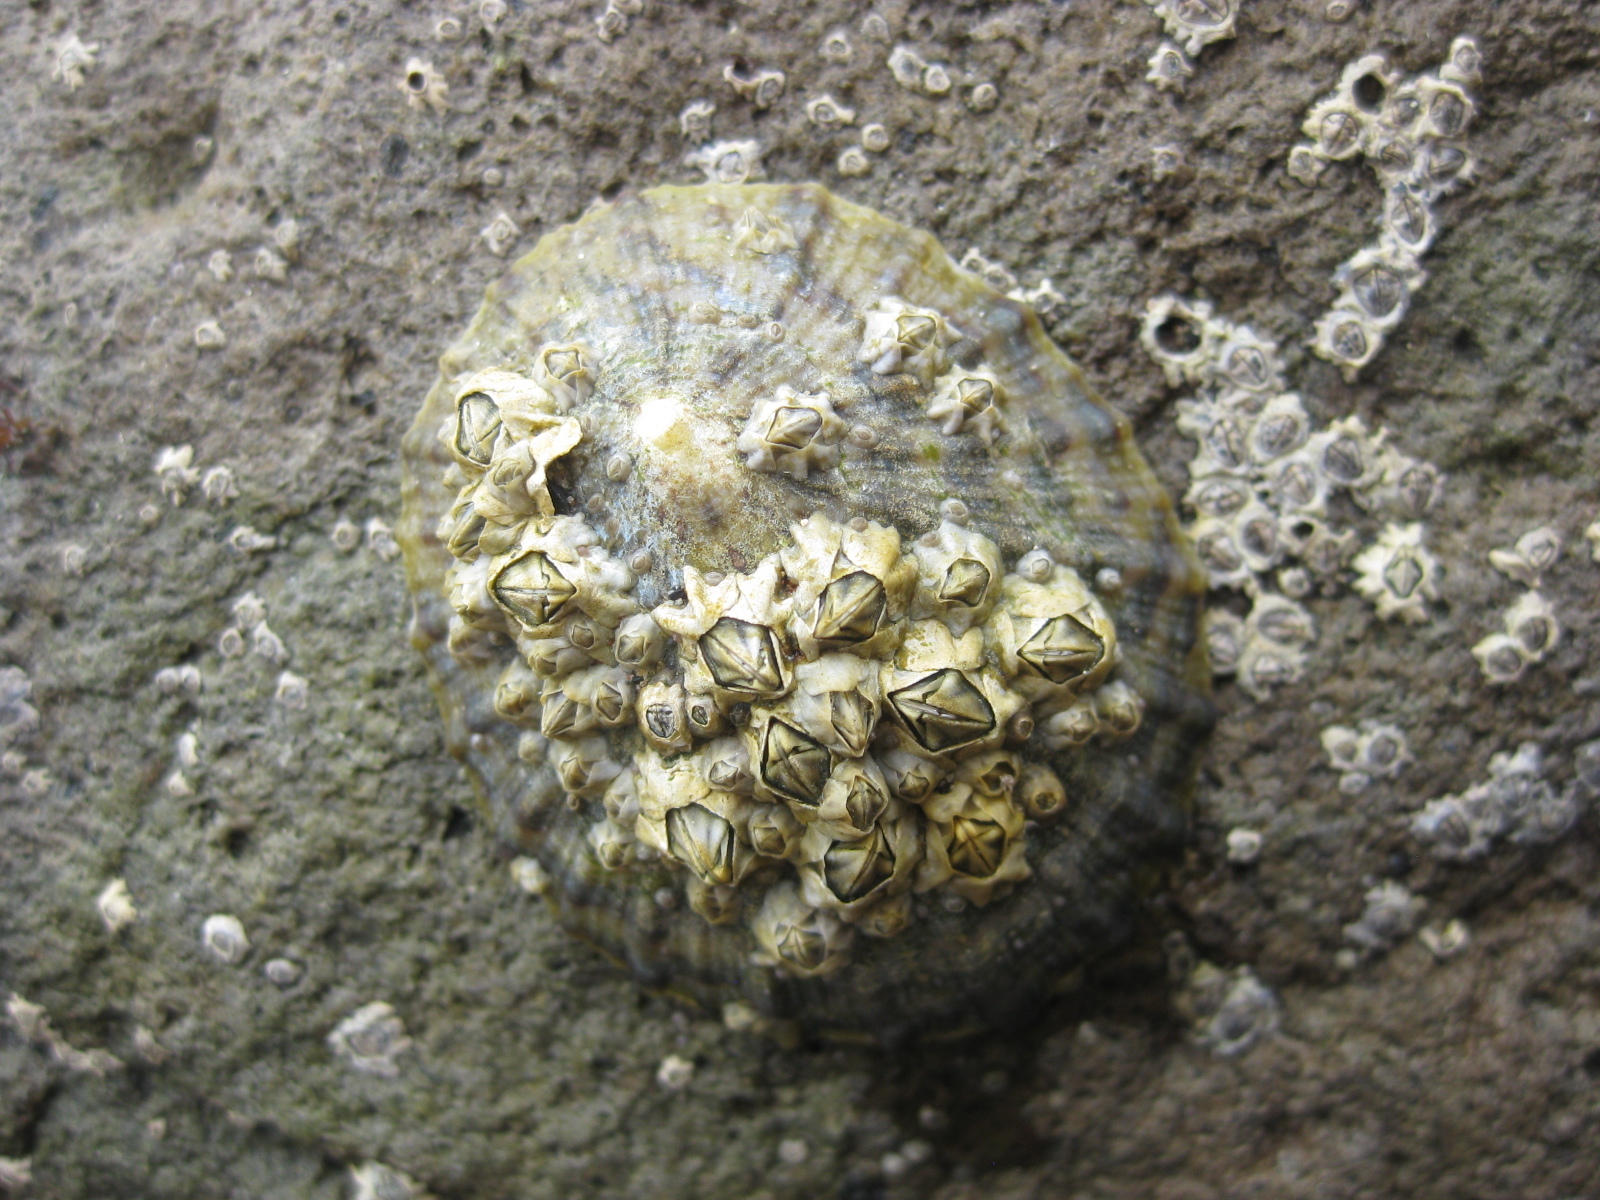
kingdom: Animalia
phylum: Arthropoda
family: Elminiidae
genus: Austrominius
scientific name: Austrominius modestus
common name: Australasian barnacle
